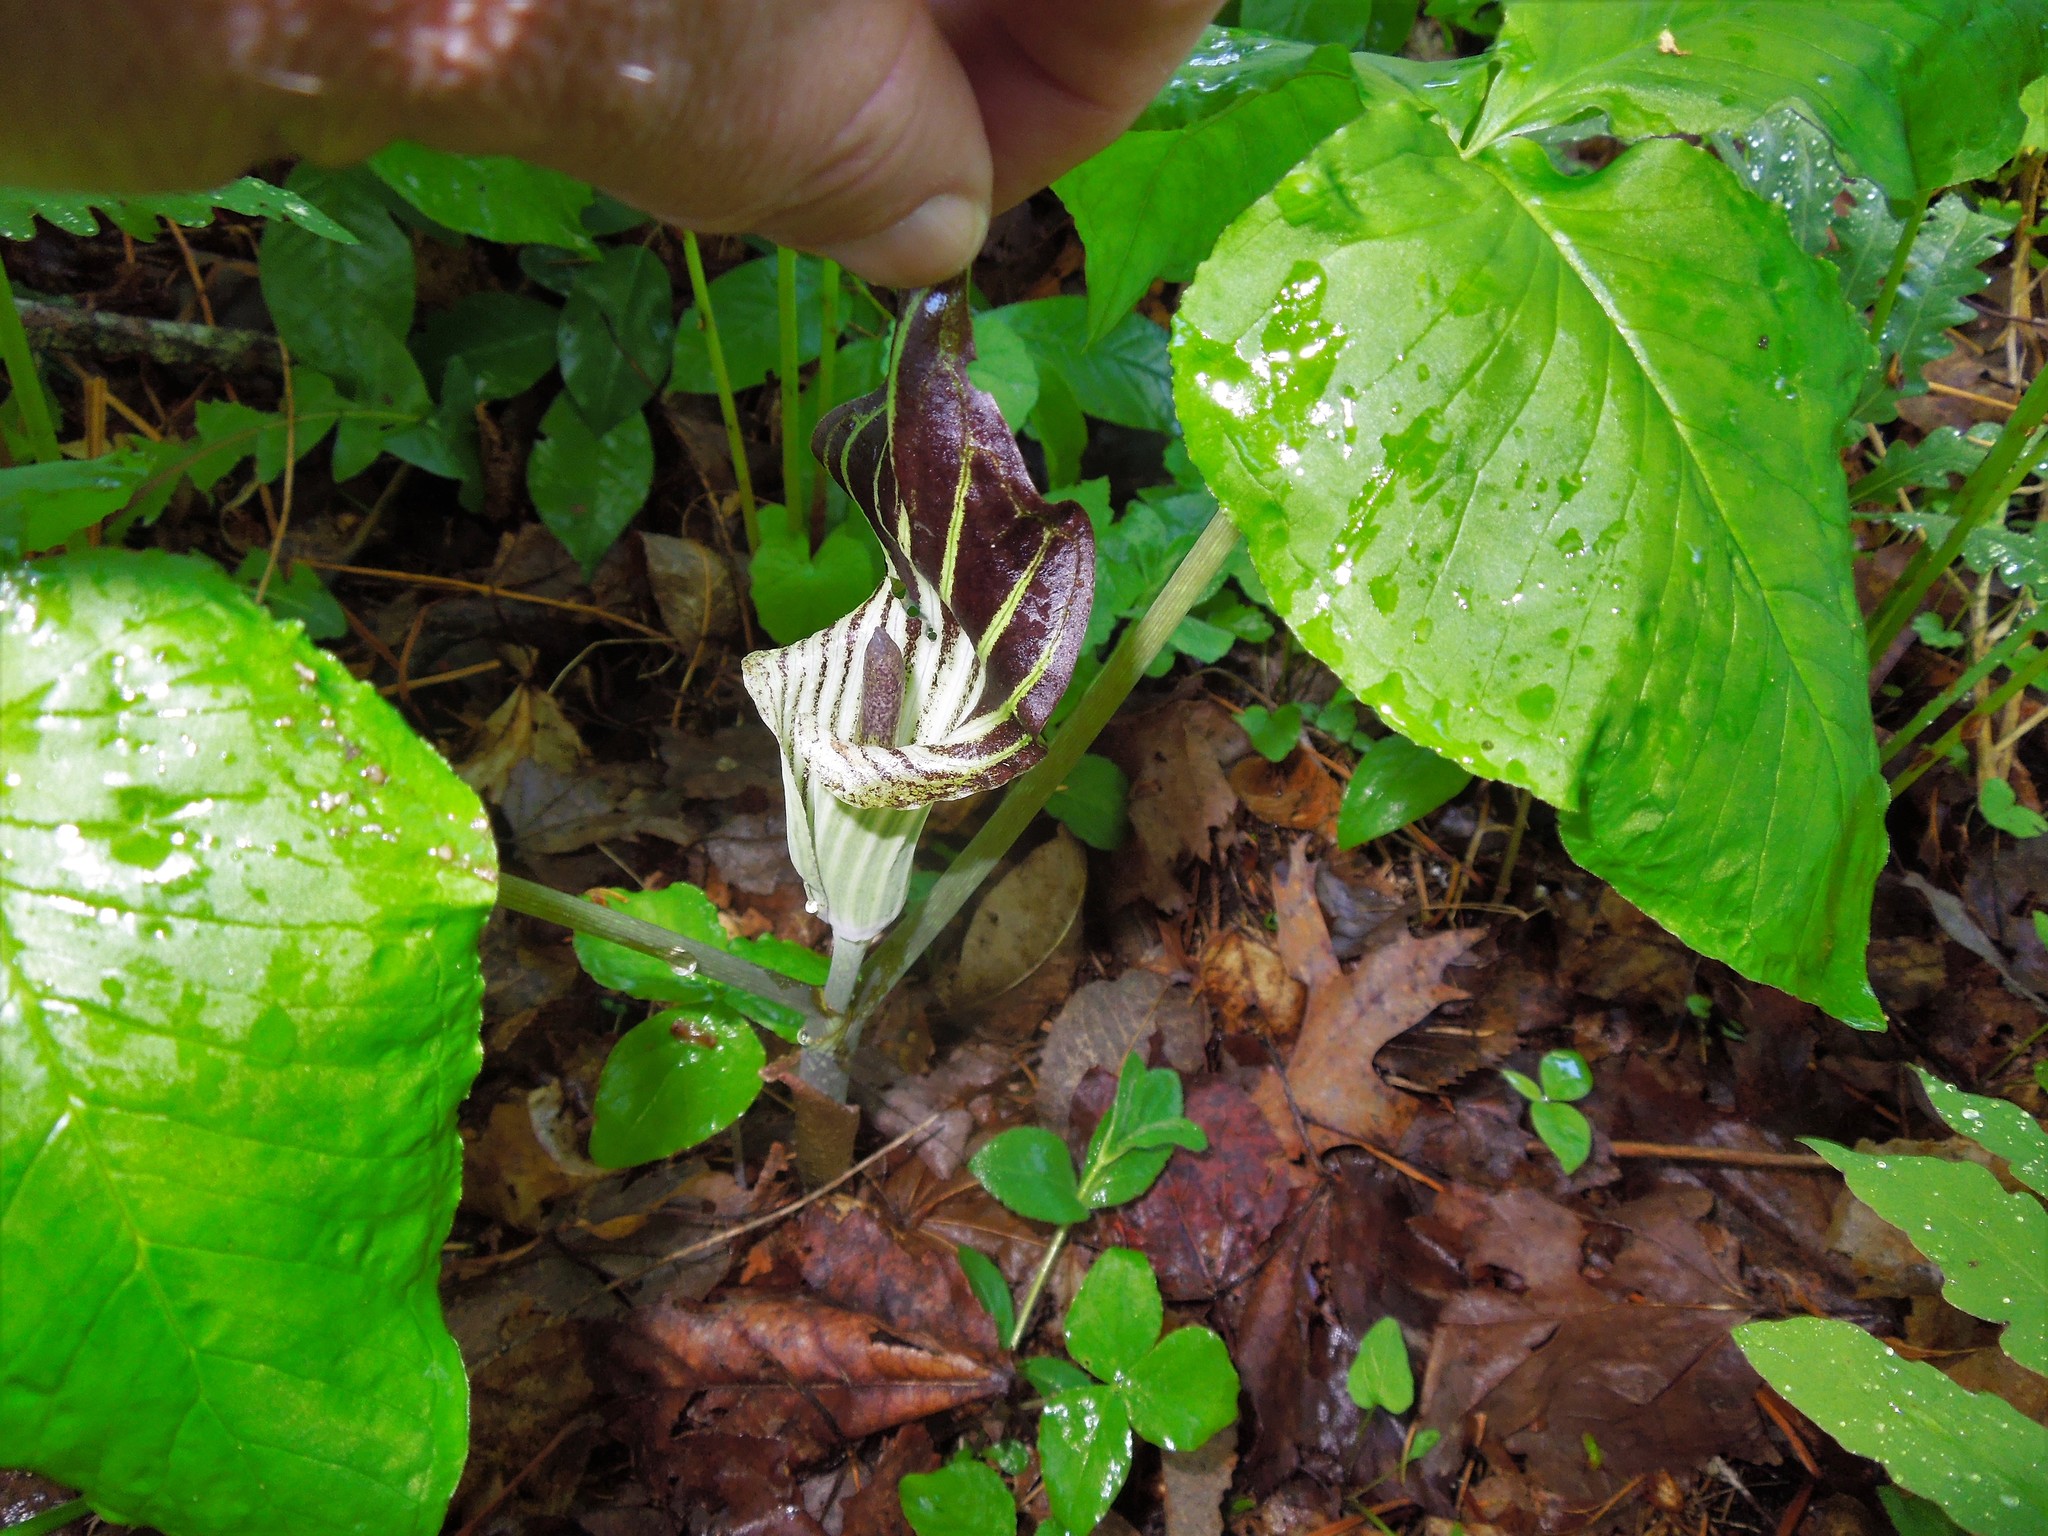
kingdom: Plantae
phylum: Tracheophyta
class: Liliopsida
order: Alismatales
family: Araceae
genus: Arisaema
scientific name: Arisaema triphyllum
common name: Jack-in-the-pulpit
